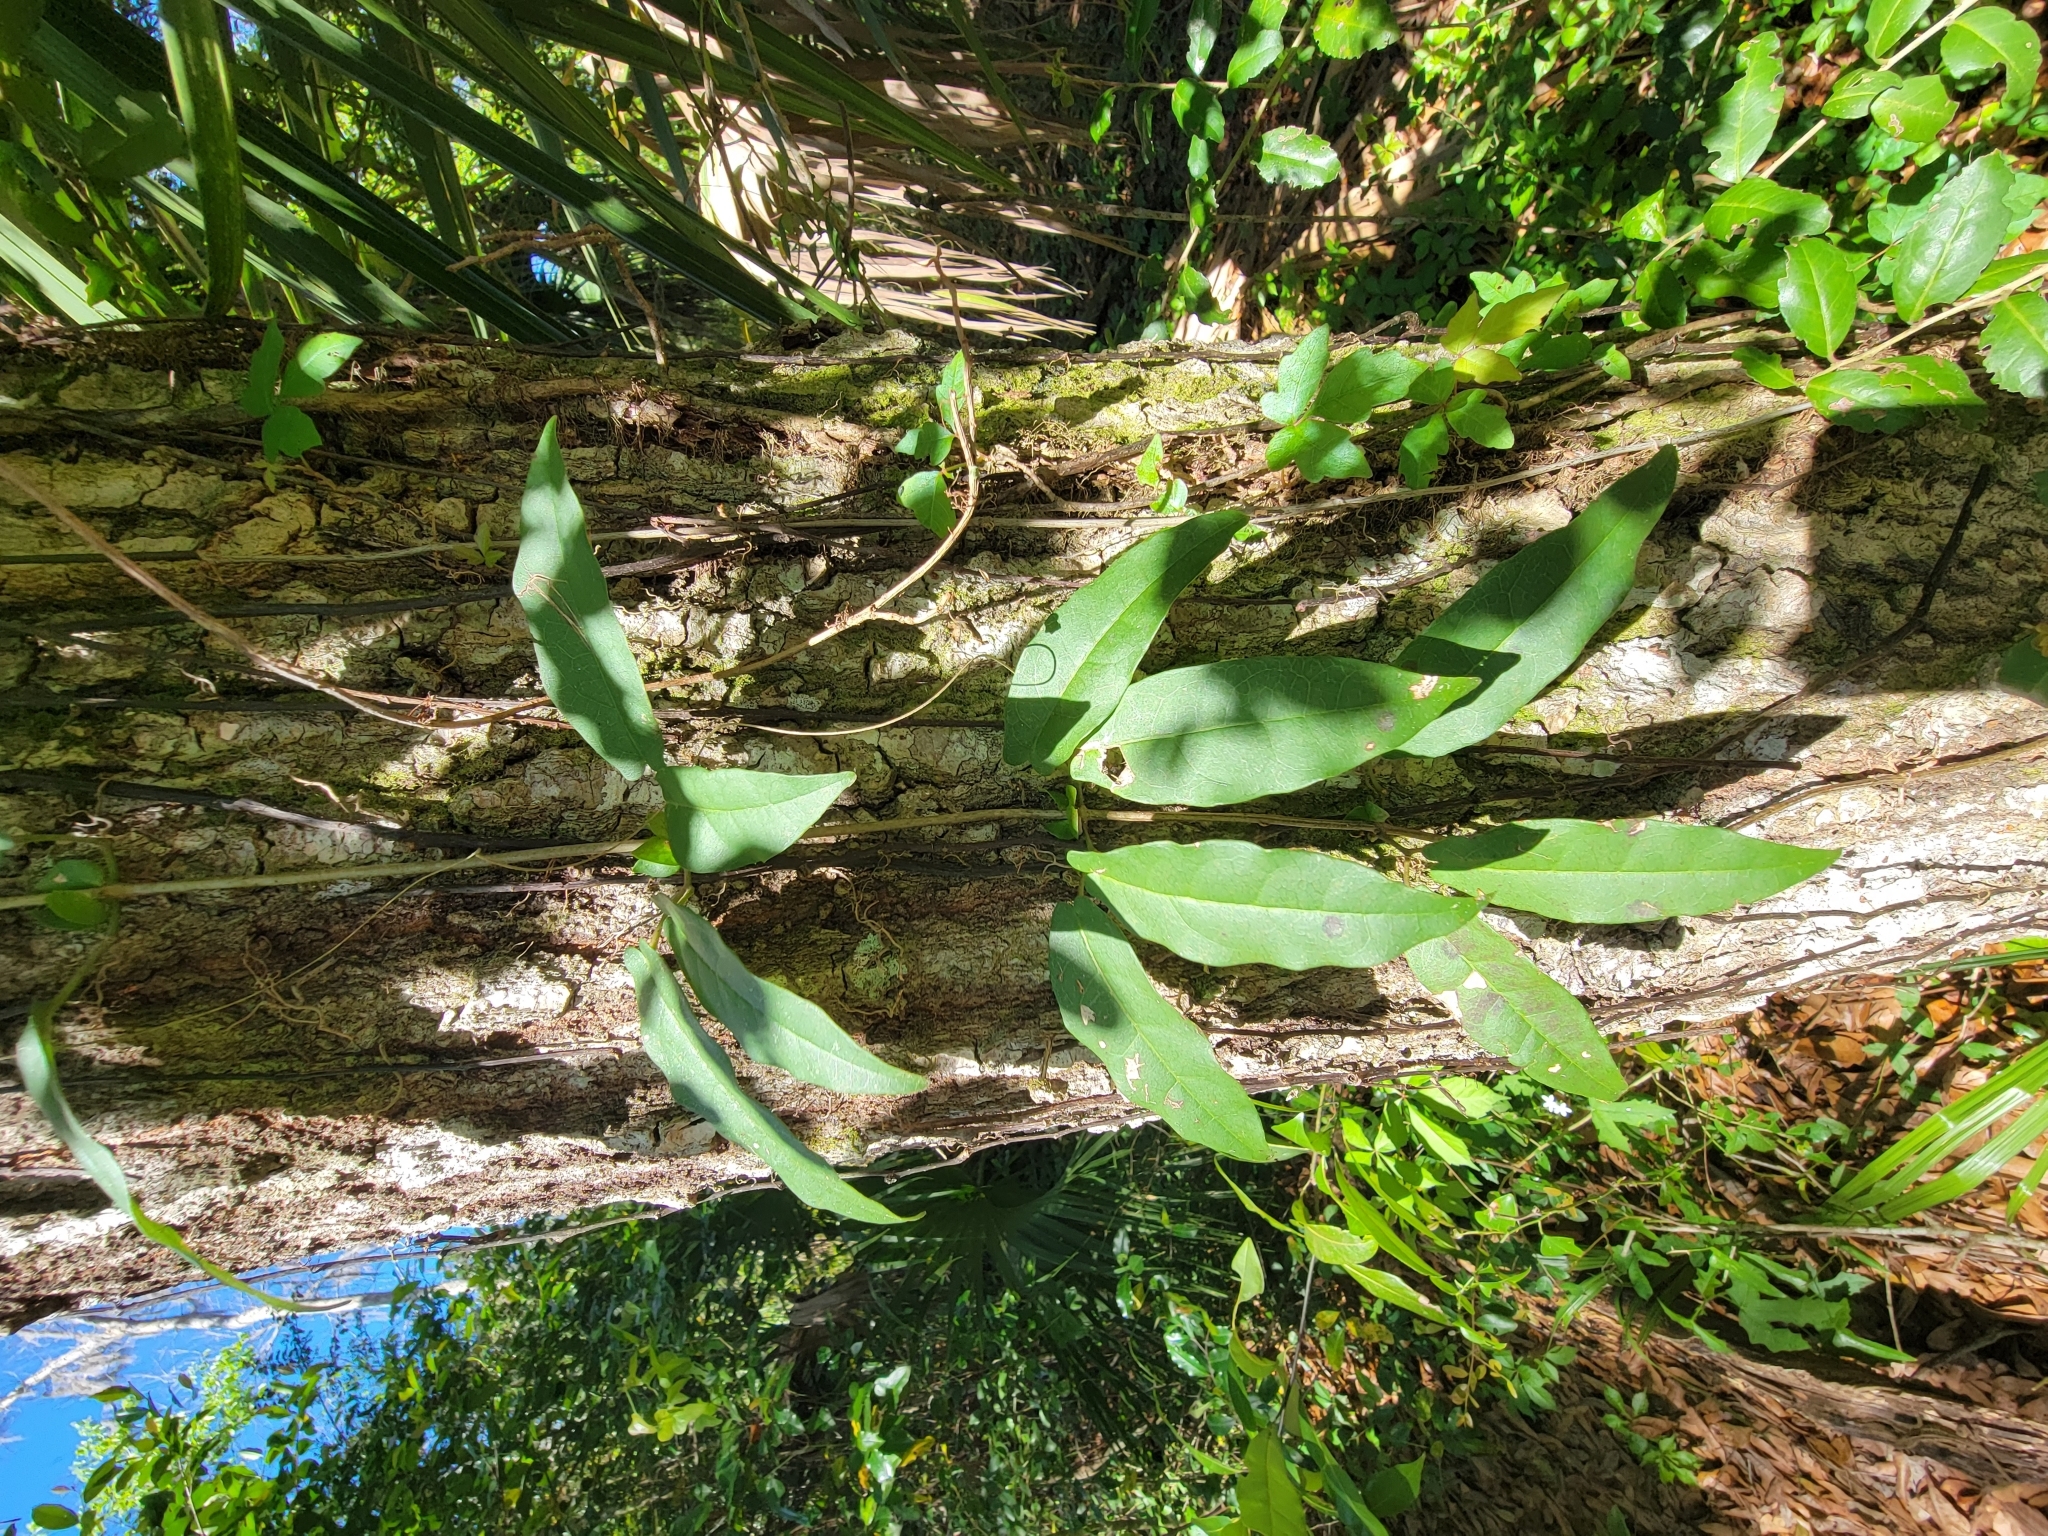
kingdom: Plantae
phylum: Tracheophyta
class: Magnoliopsida
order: Lamiales
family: Bignoniaceae
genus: Bignonia
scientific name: Bignonia capreolata
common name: Crossvine
